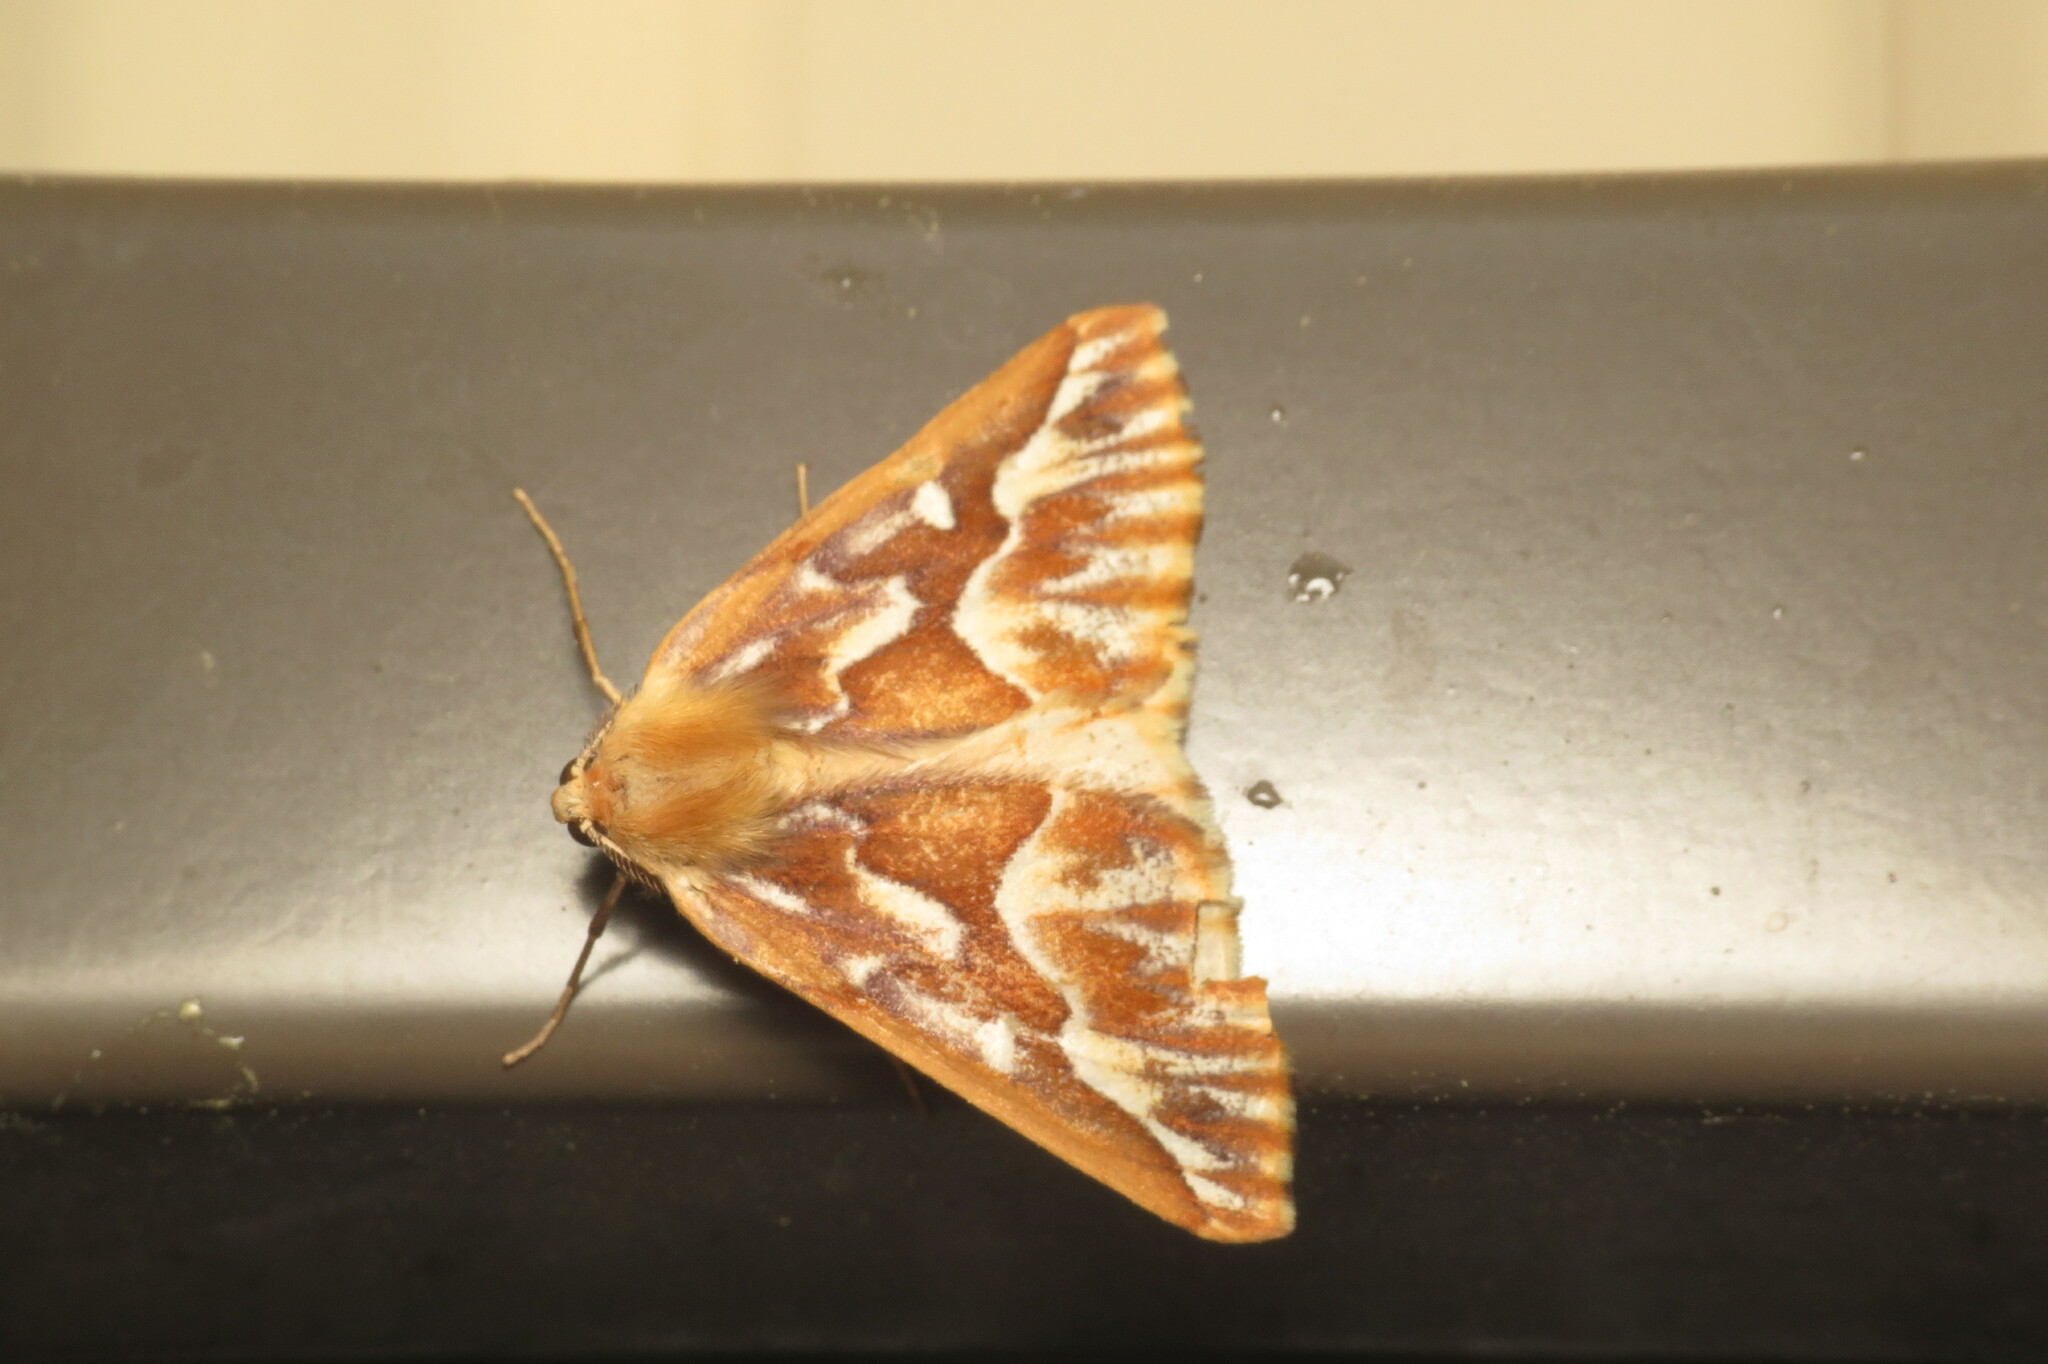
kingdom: Animalia
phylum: Arthropoda
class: Insecta
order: Lepidoptera
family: Geometridae
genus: Caripeta
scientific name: Caripeta piniata
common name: Northern pine looper moth
